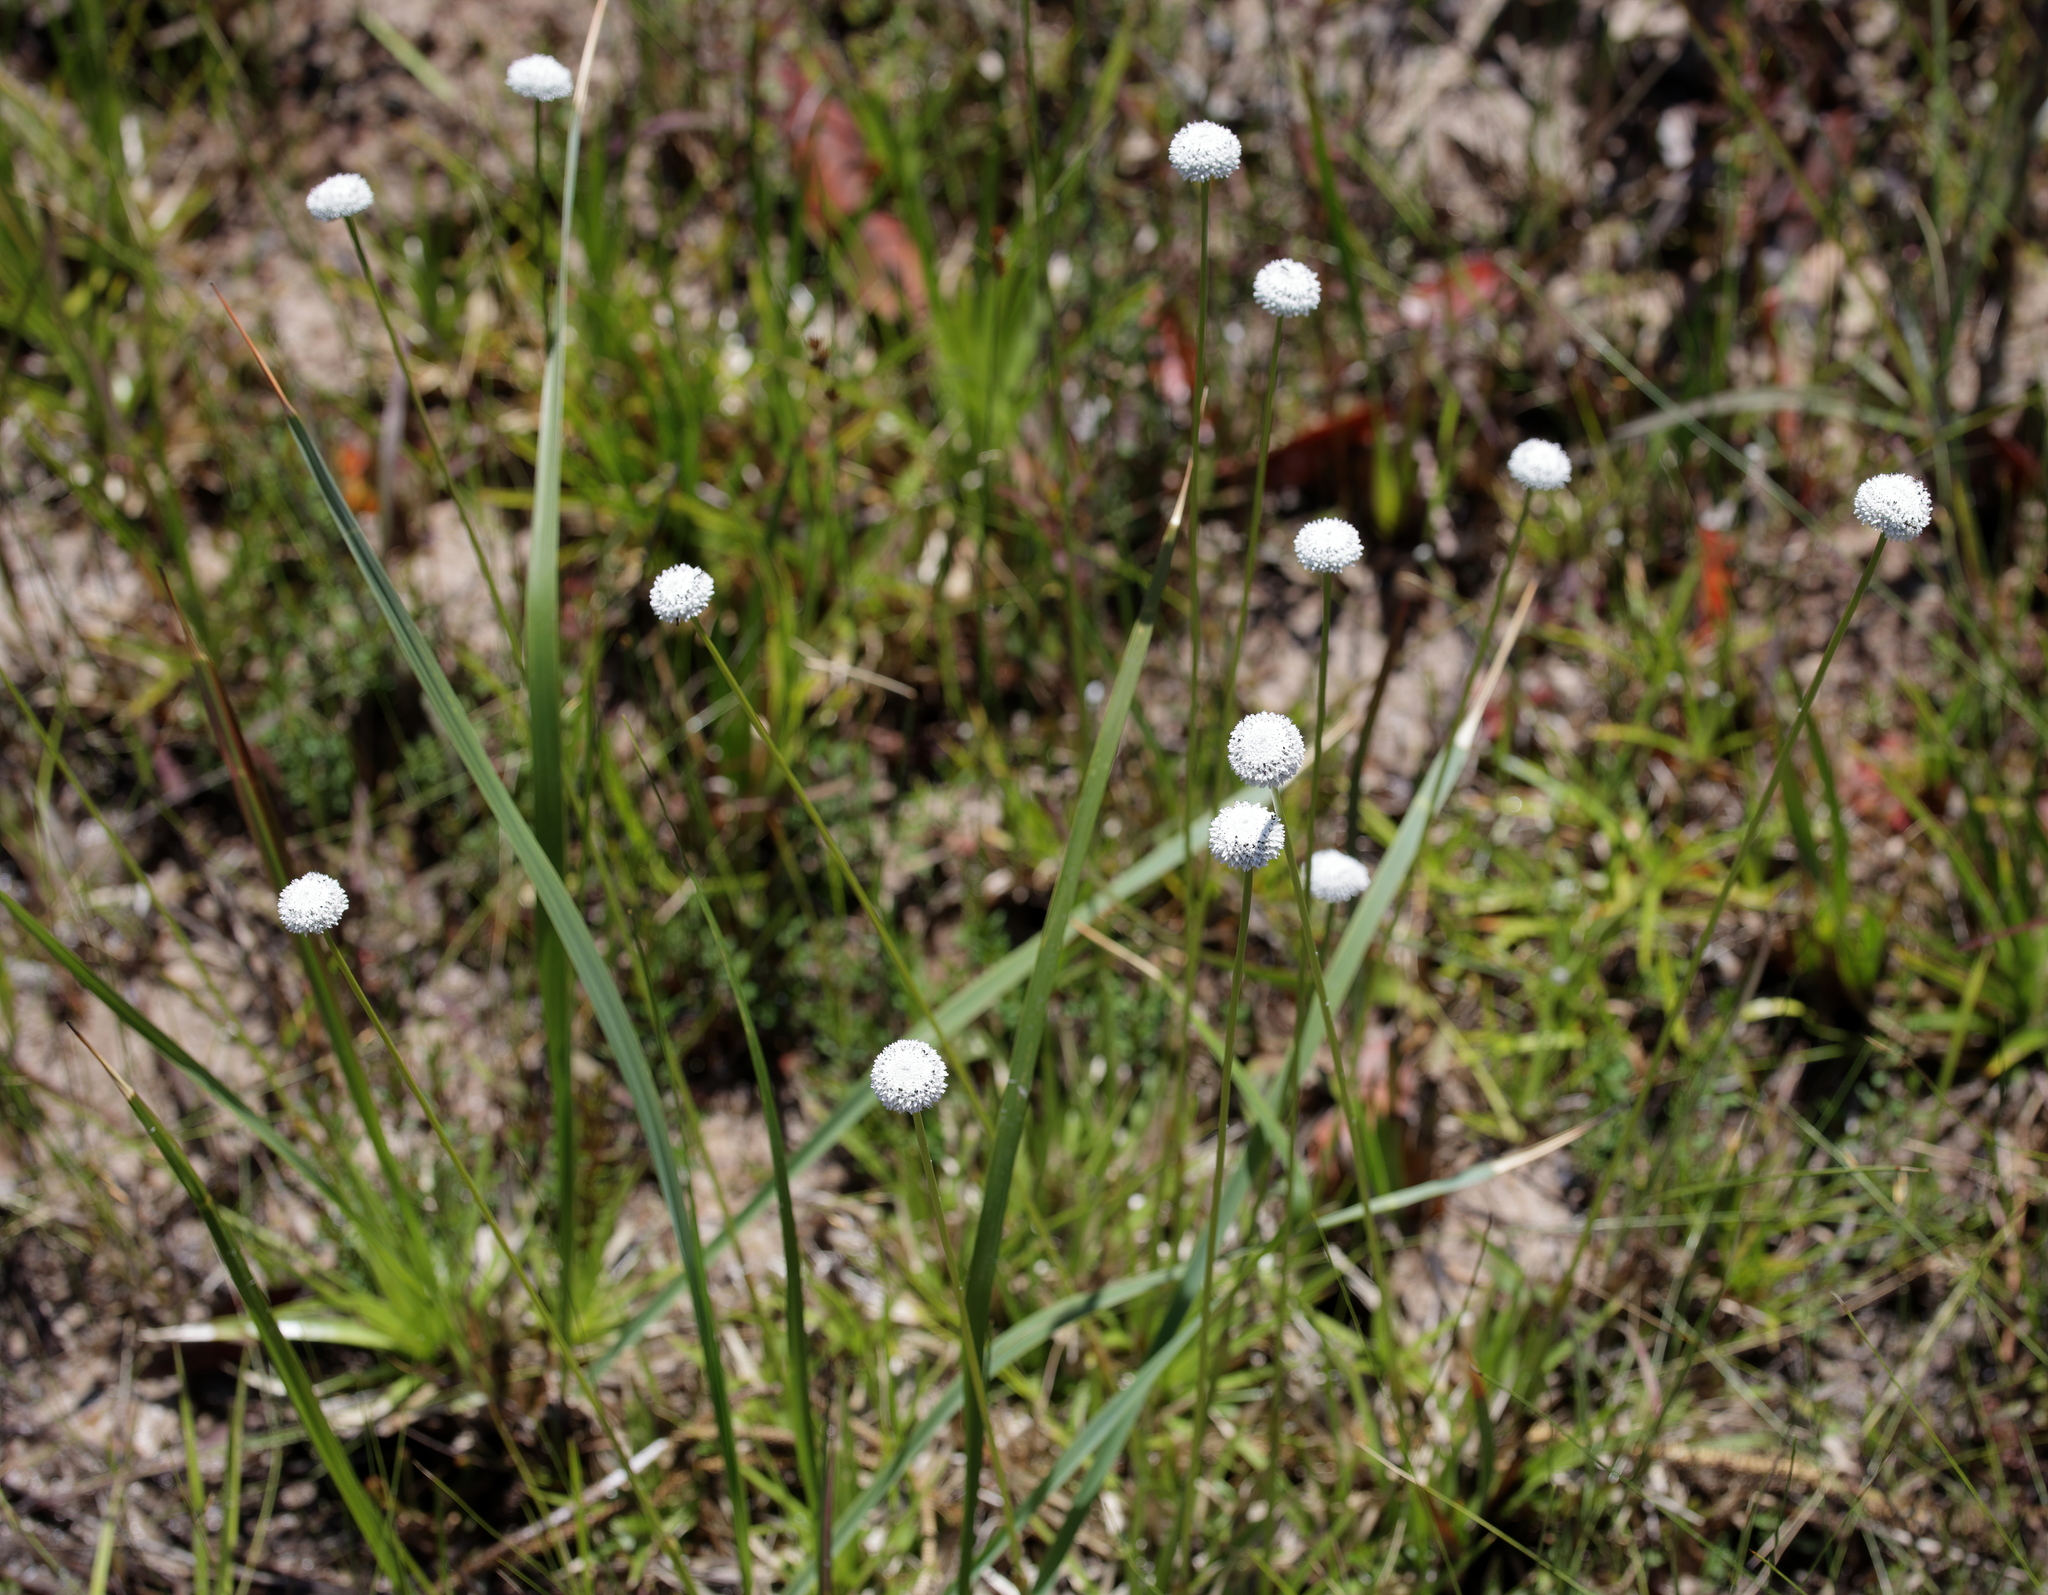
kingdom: Plantae
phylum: Tracheophyta
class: Liliopsida
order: Poales
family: Eriocaulaceae
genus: Eriocaulon
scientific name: Eriocaulon compressum
